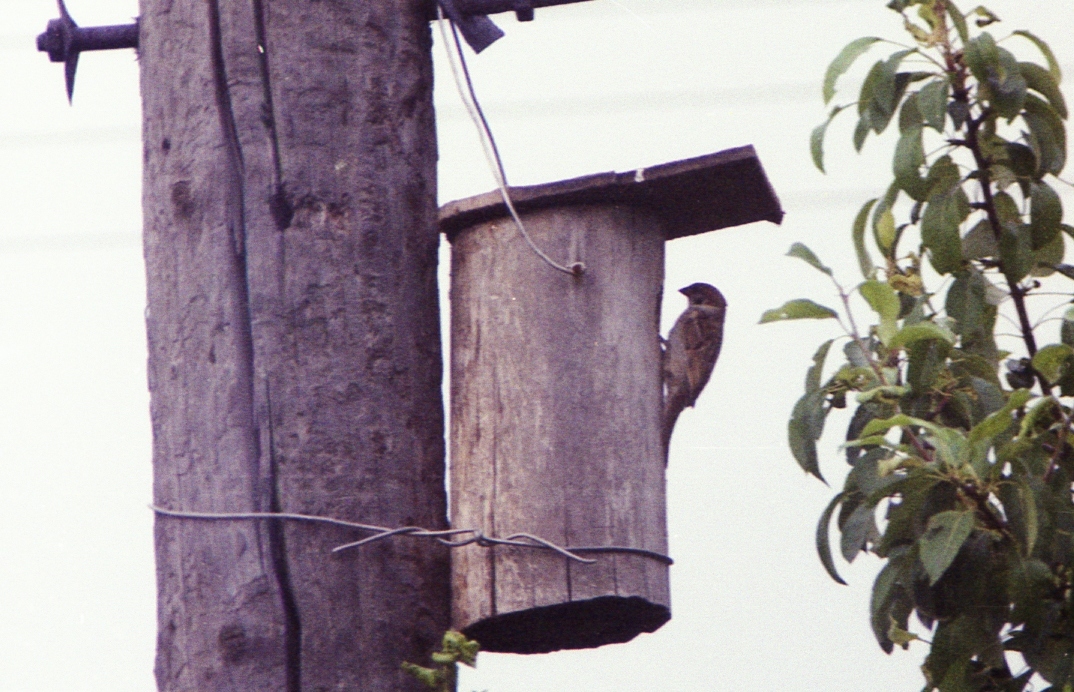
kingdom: Animalia
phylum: Chordata
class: Aves
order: Passeriformes
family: Passeridae
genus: Passer
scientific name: Passer montanus
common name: Eurasian tree sparrow
